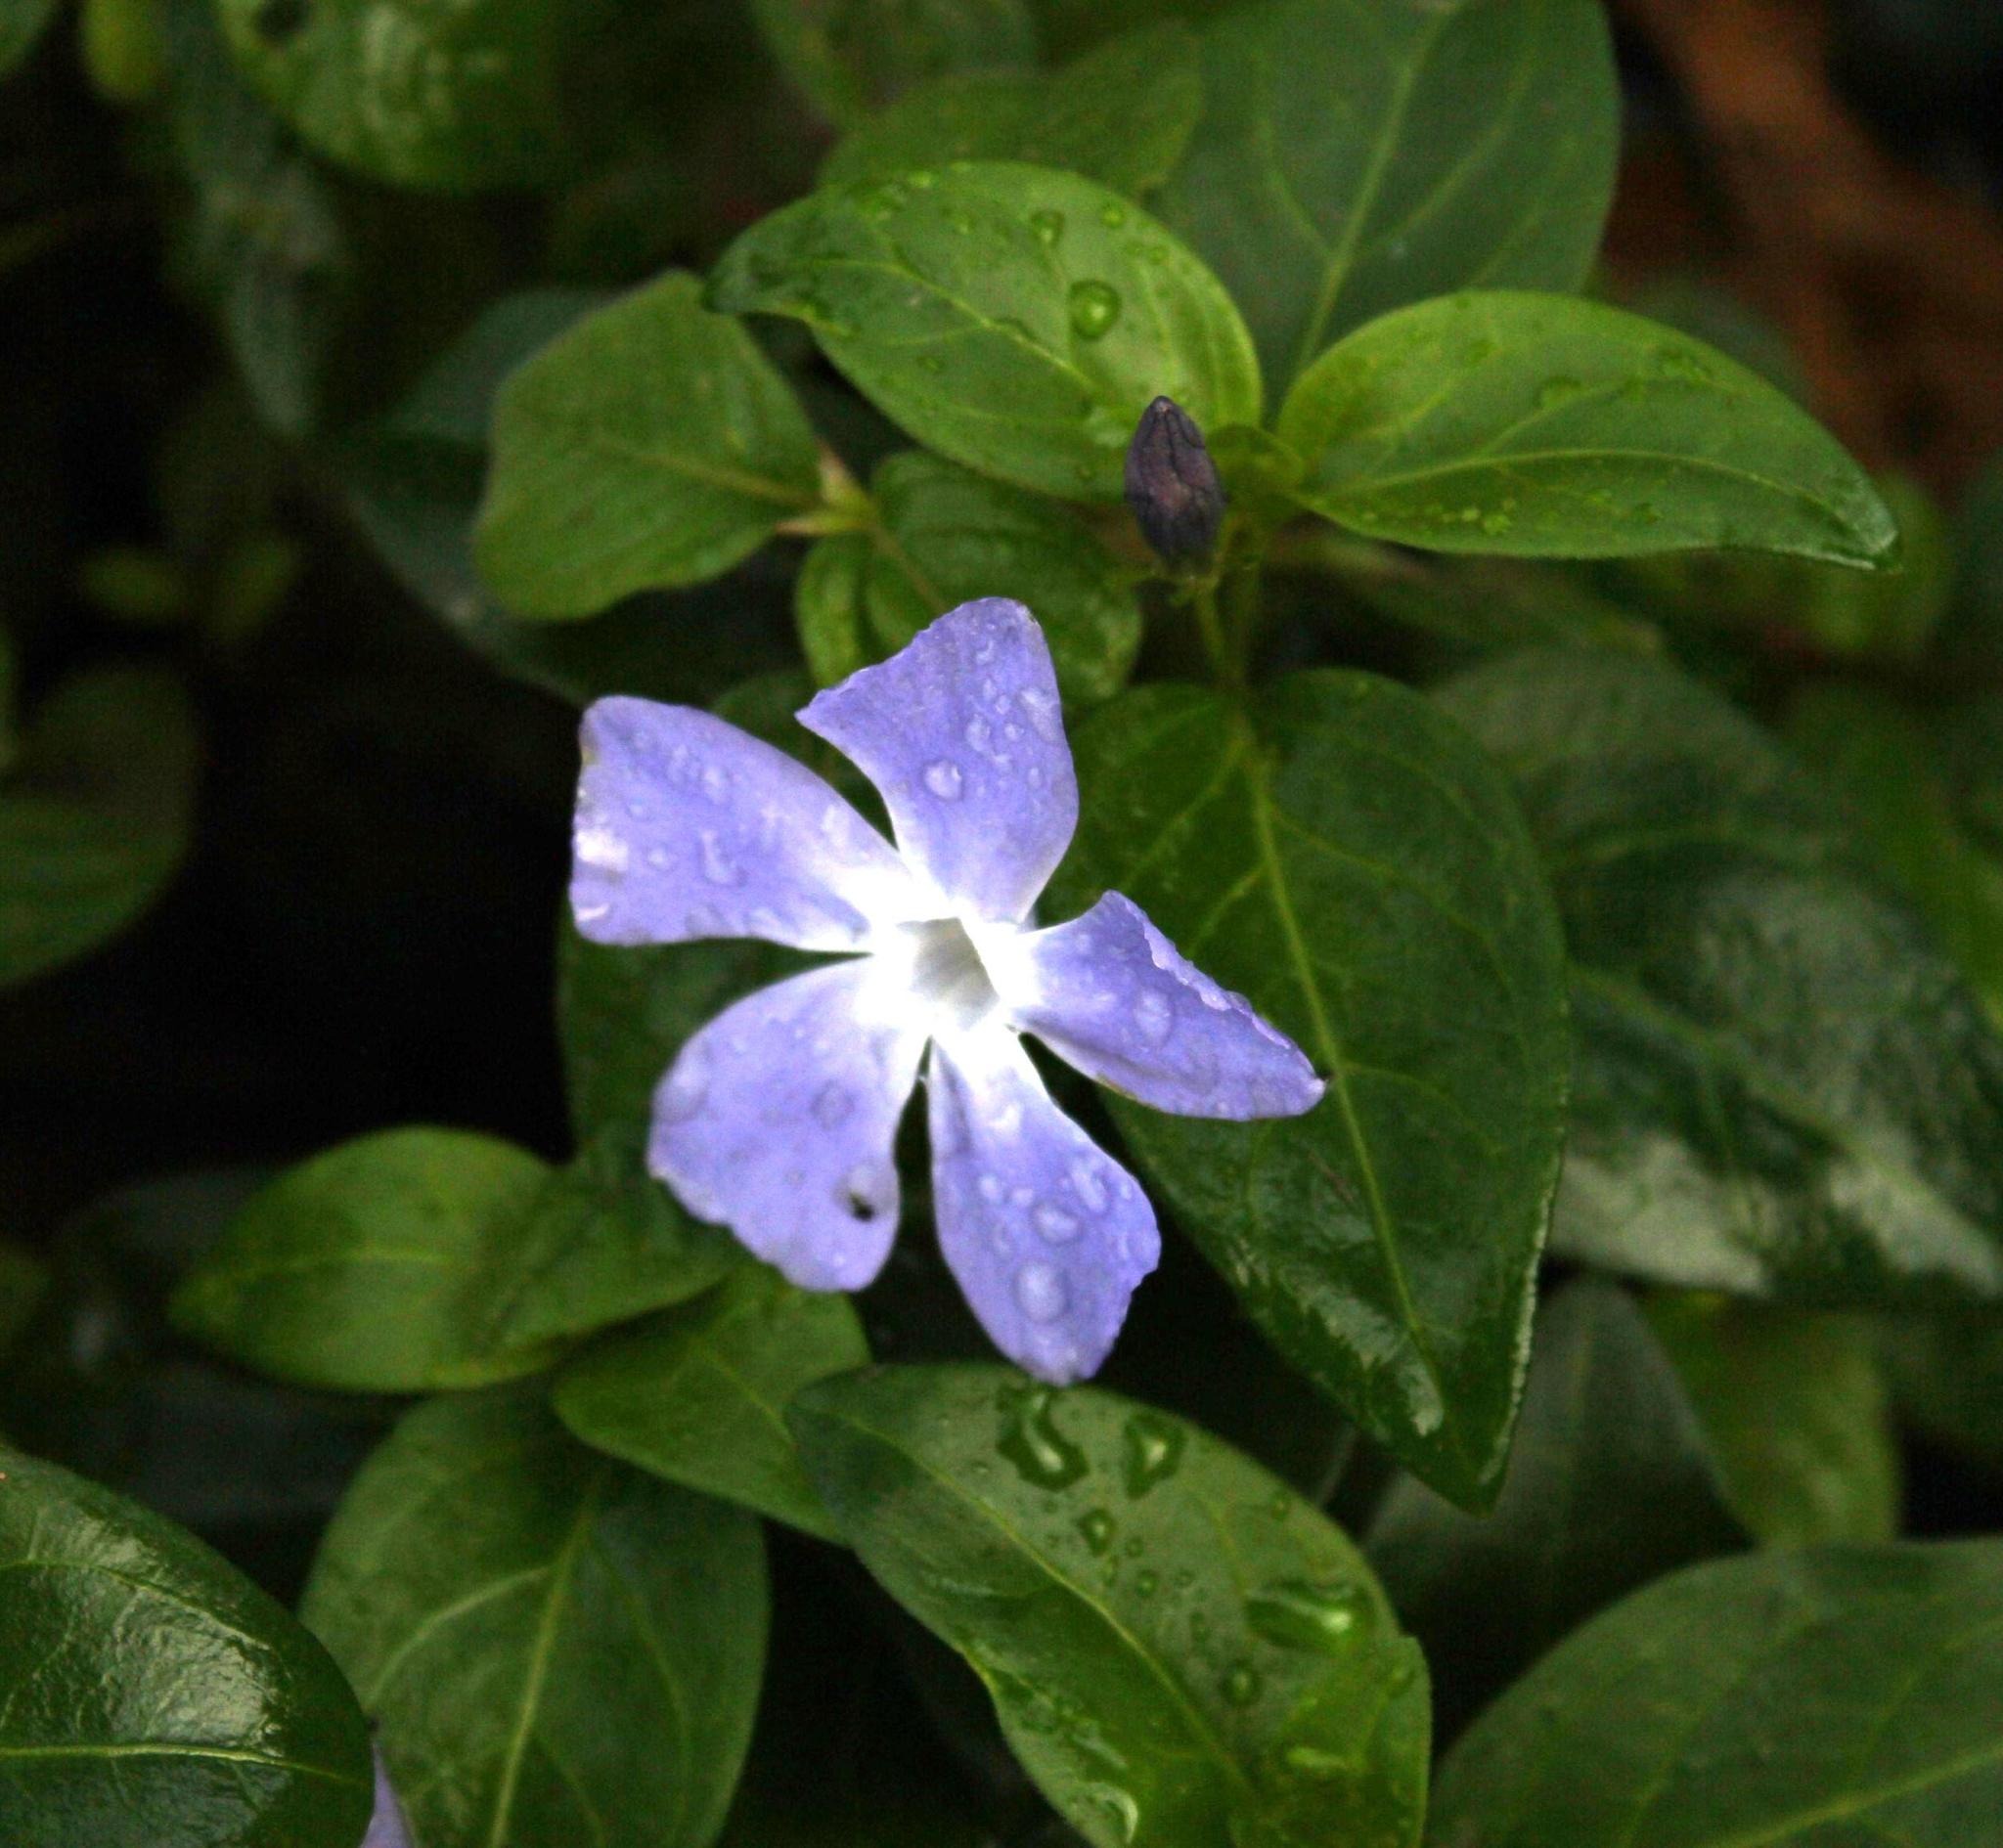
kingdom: Plantae
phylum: Tracheophyta
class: Magnoliopsida
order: Gentianales
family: Apocynaceae
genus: Vinca
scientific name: Vinca major
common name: Greater periwinkle
